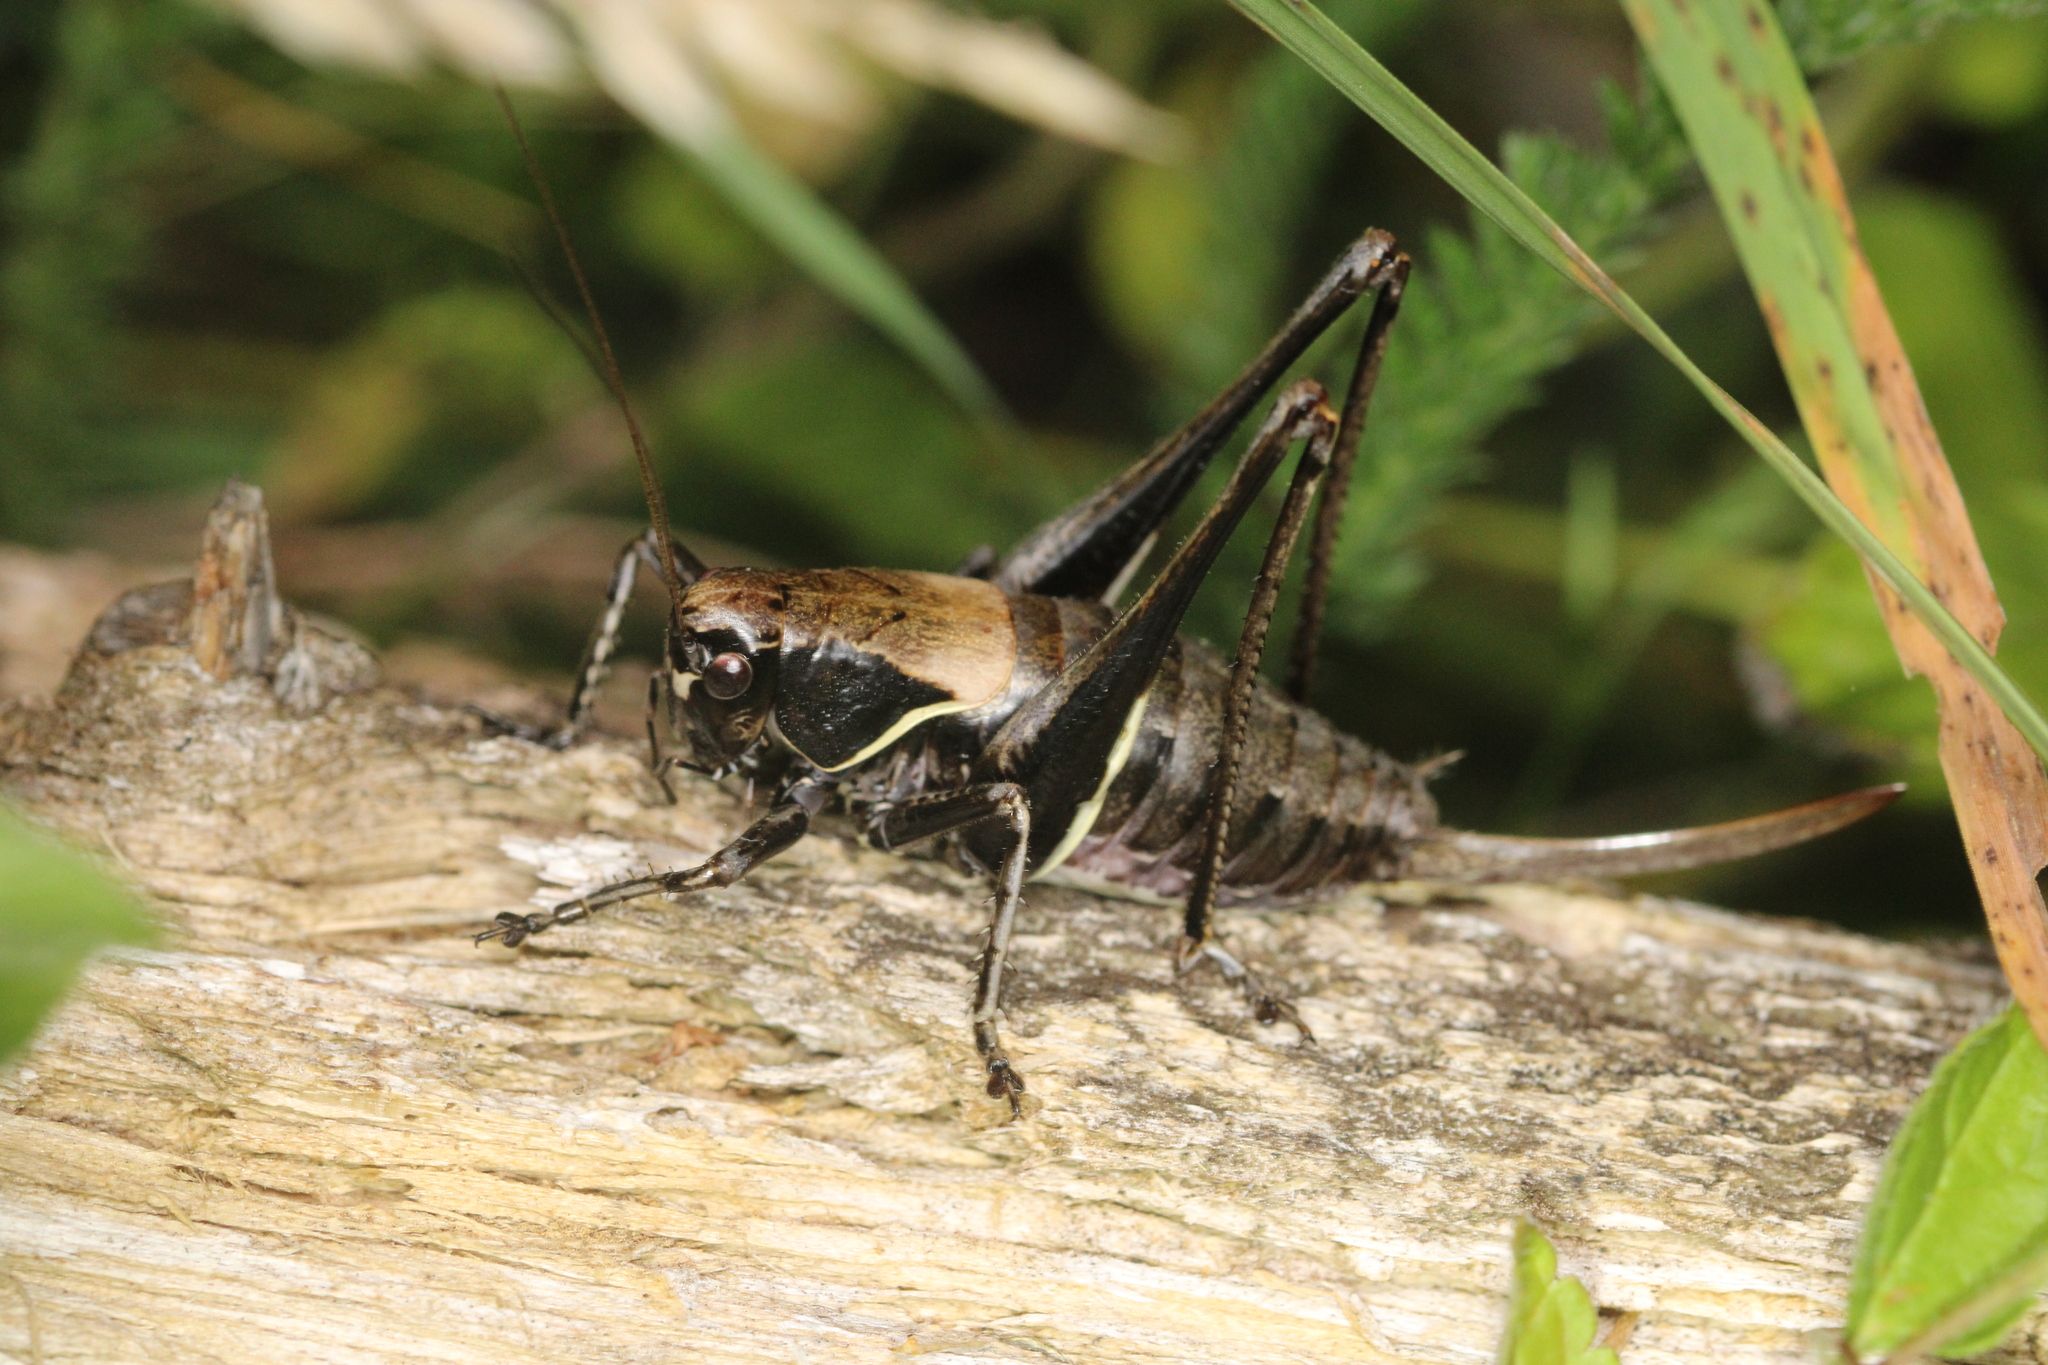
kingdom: Animalia
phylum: Arthropoda
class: Insecta
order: Orthoptera
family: Tettigoniidae
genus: Pholidoptera
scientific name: Pholidoptera aptera
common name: Alpine dark bush-cricket
